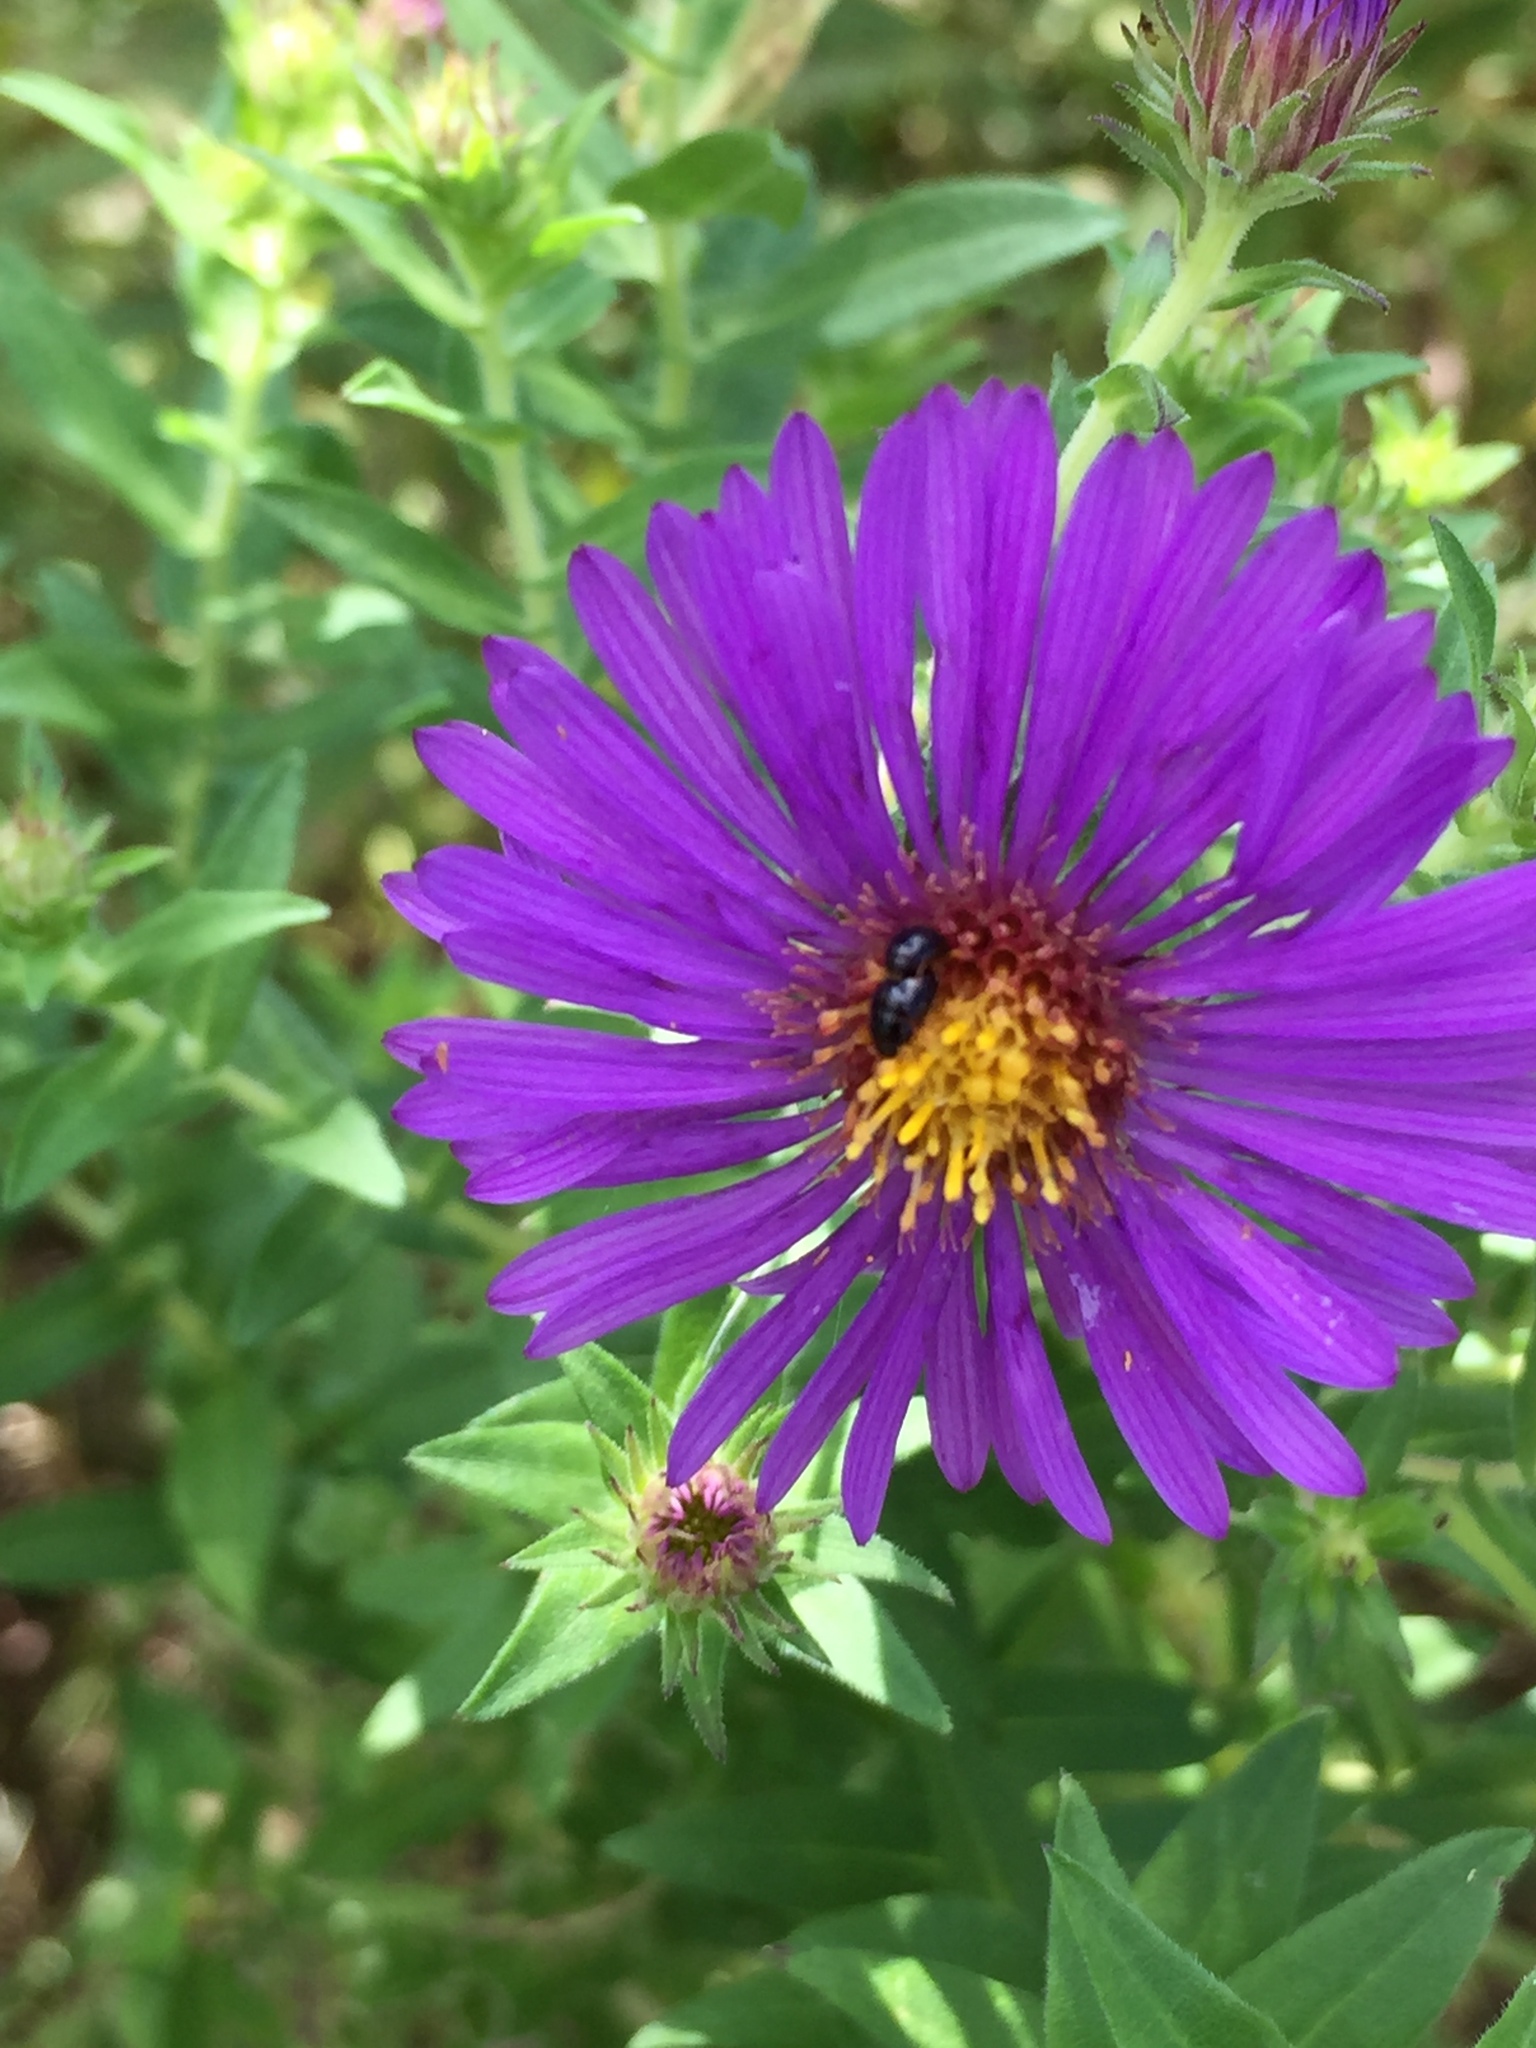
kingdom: Plantae
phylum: Tracheophyta
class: Magnoliopsida
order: Asterales
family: Asteraceae
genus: Symphyotrichum
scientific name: Symphyotrichum novae-angliae
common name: Michaelmas daisy
